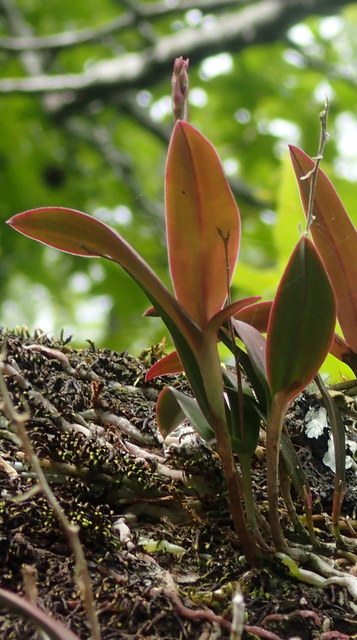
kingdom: Plantae
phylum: Tracheophyta
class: Liliopsida
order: Asparagales
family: Orchidaceae
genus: Epidendrum
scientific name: Epidendrum conopseum
